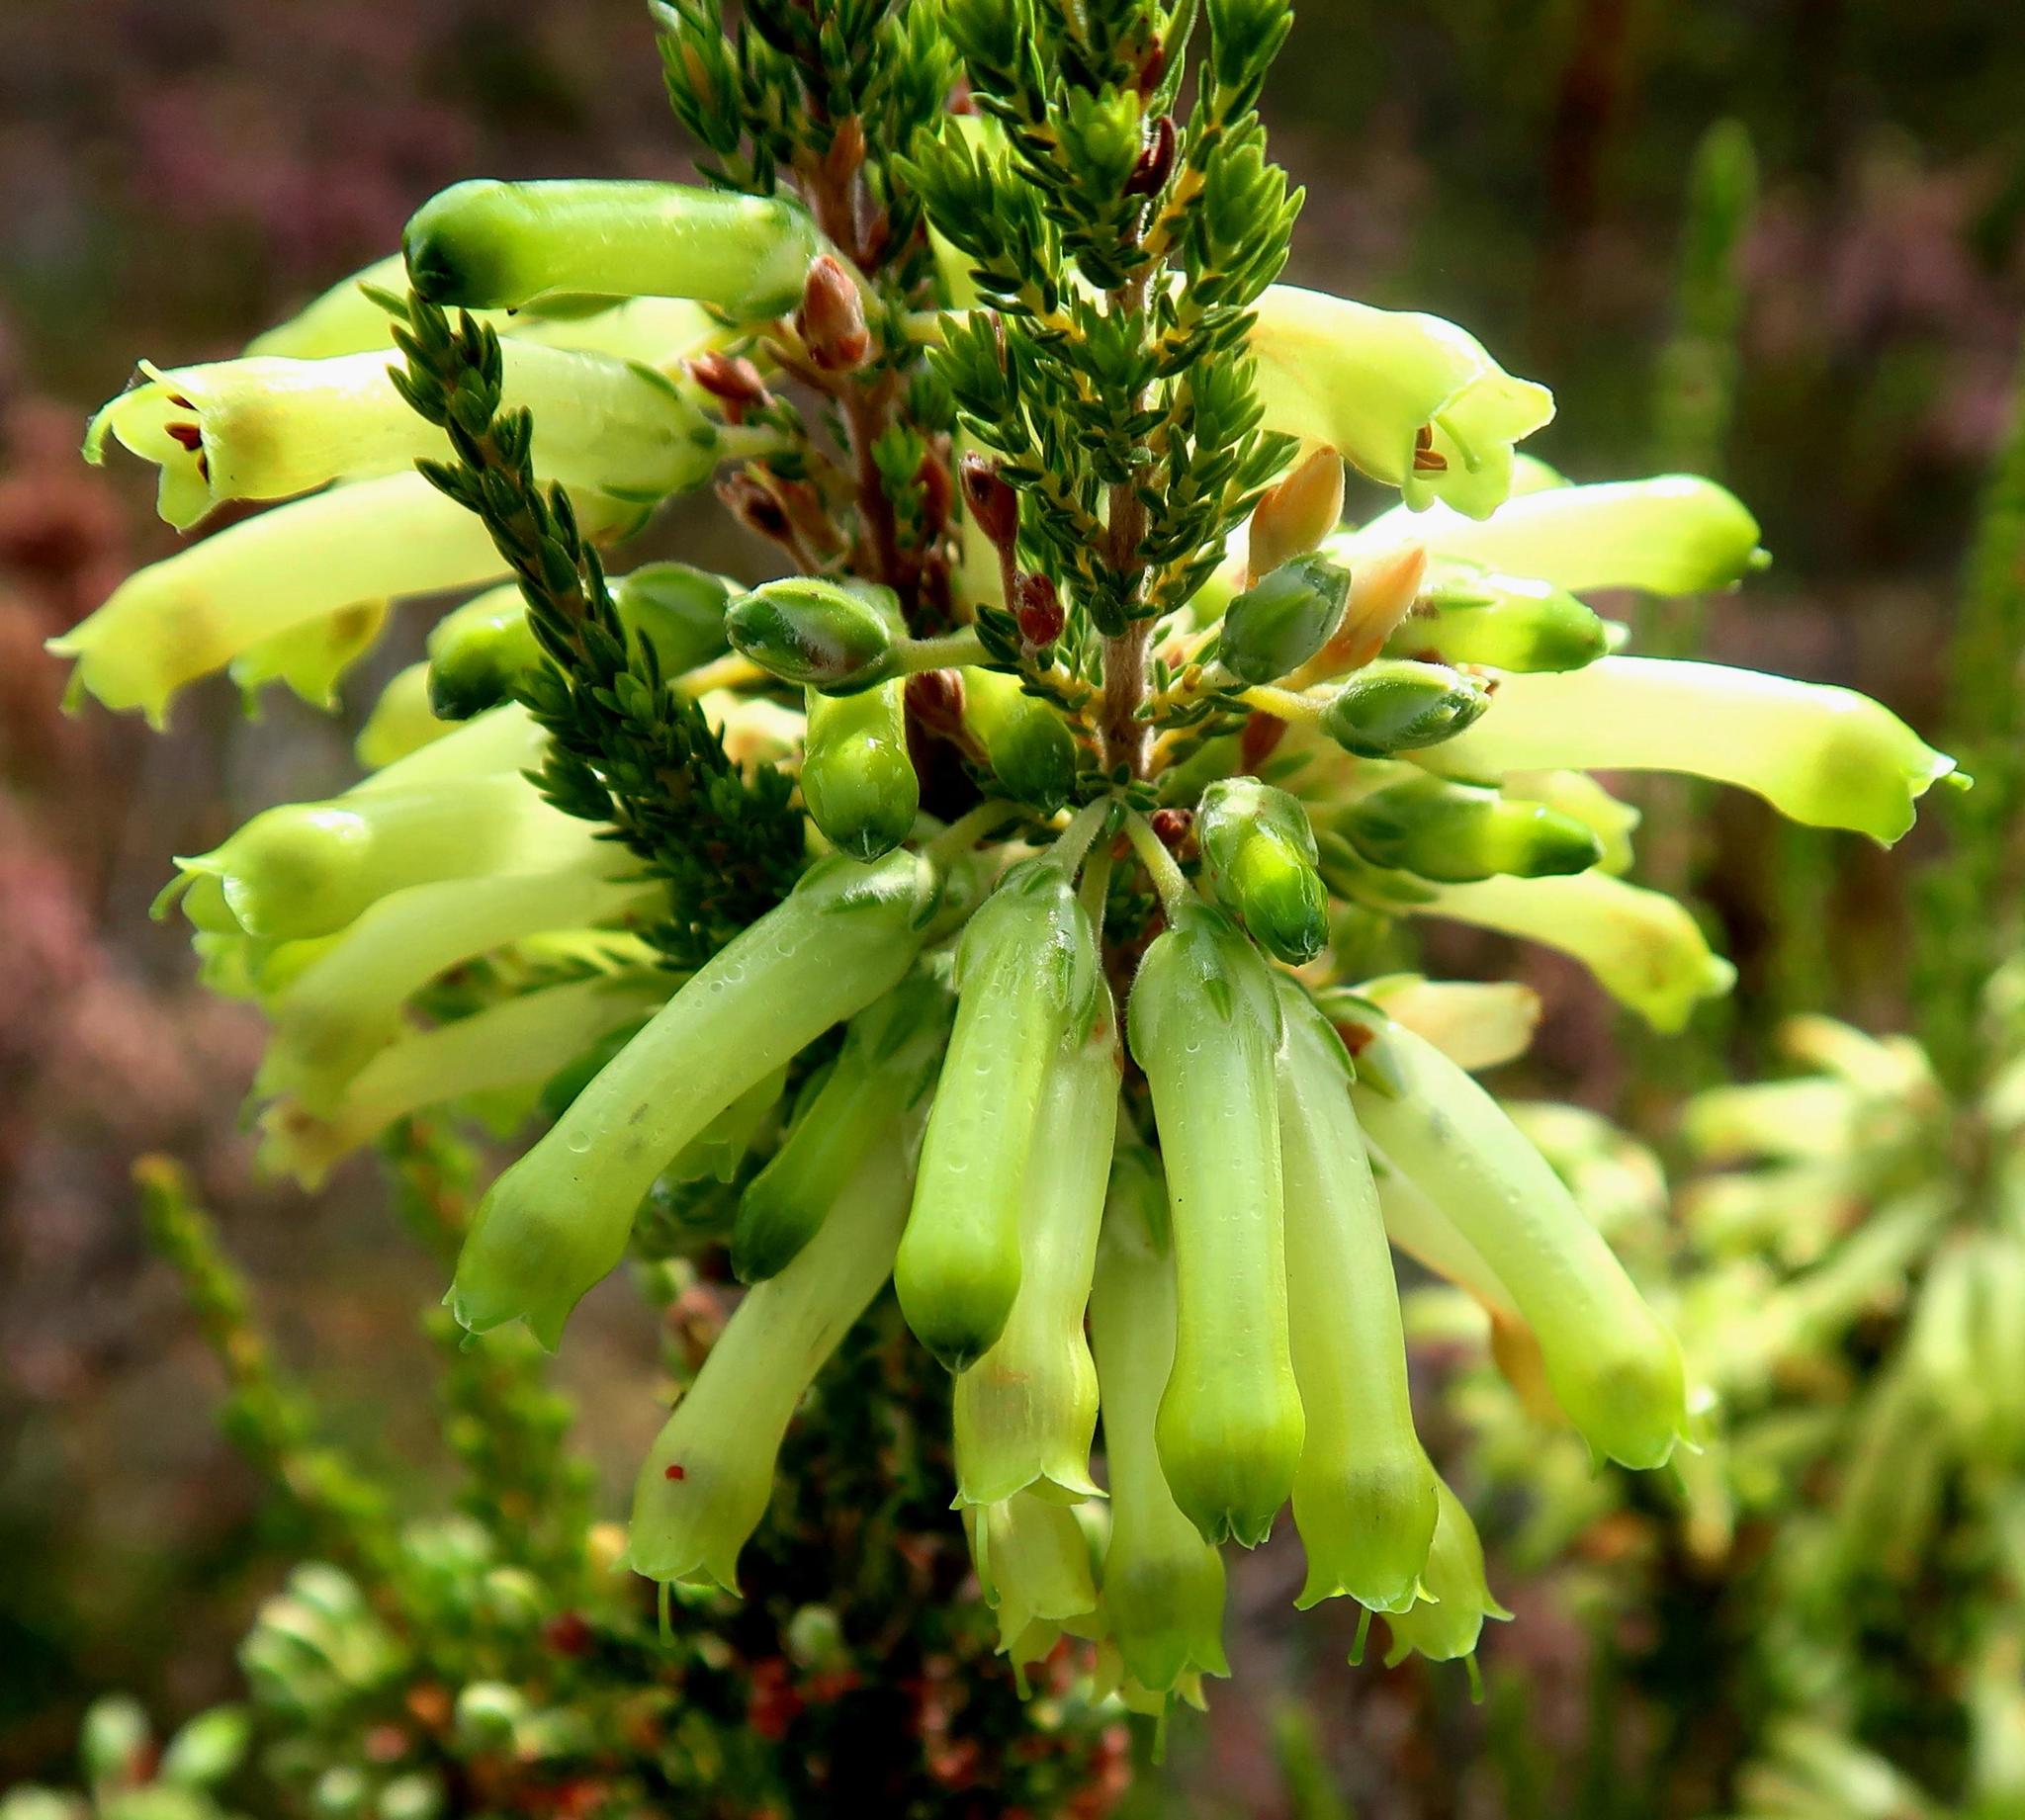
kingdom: Plantae
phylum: Tracheophyta
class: Magnoliopsida
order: Ericales
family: Ericaceae
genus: Erica
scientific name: Erica discolor
